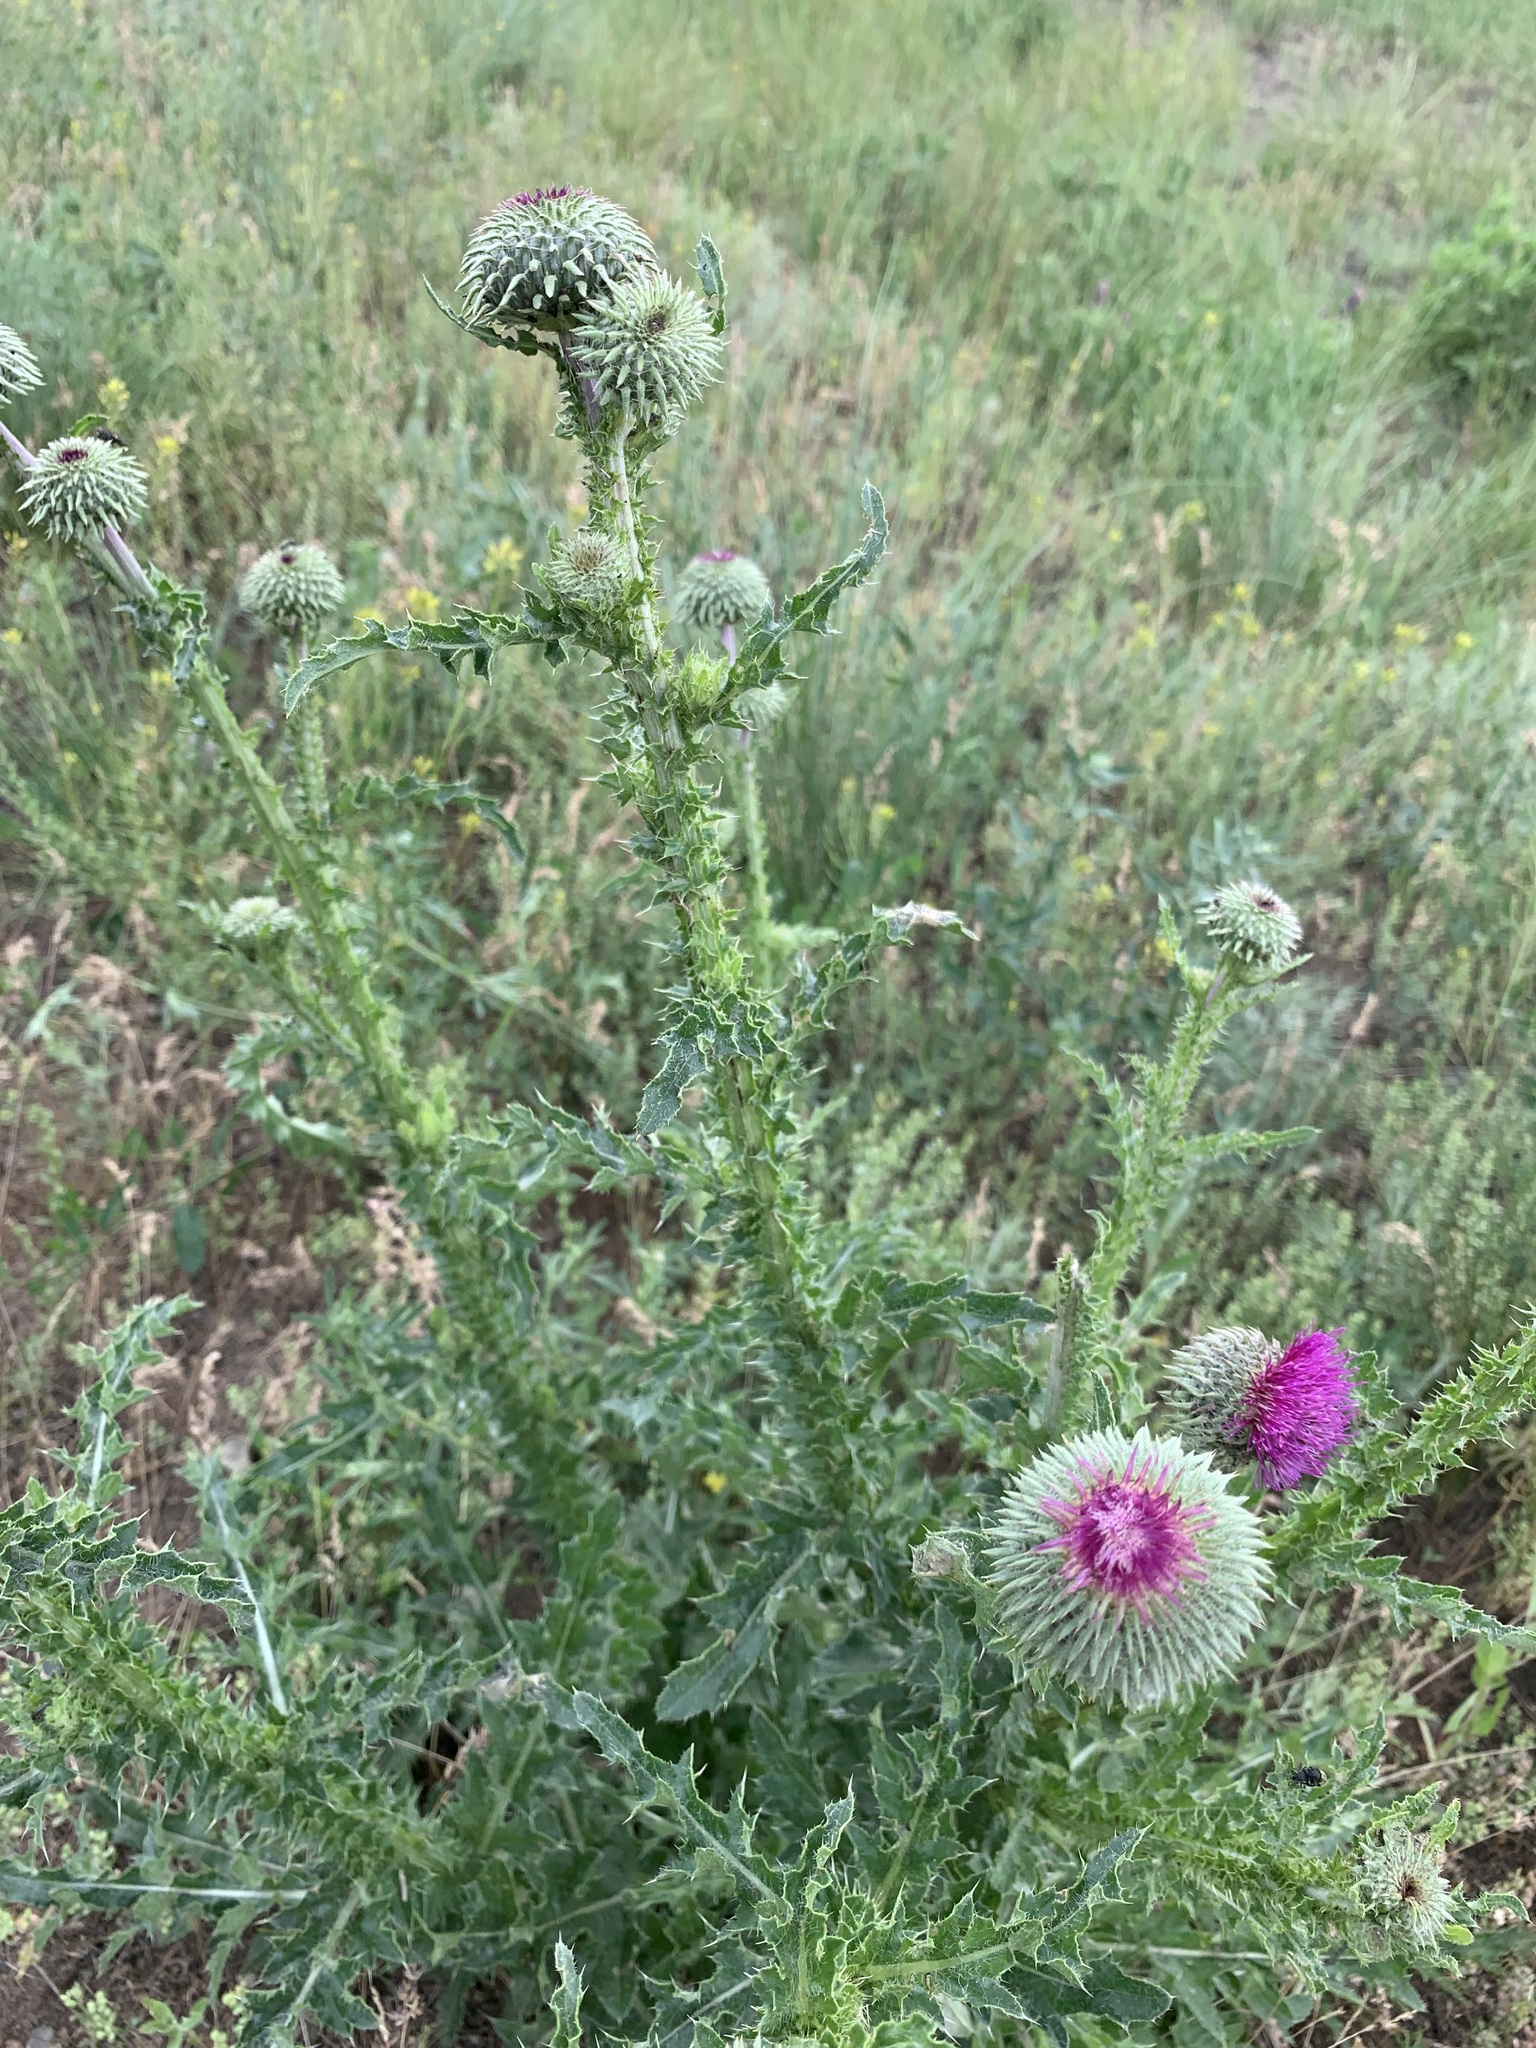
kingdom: Plantae
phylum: Tracheophyta
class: Magnoliopsida
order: Asterales
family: Asteraceae
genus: Carduus
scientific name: Carduus uncinatus
